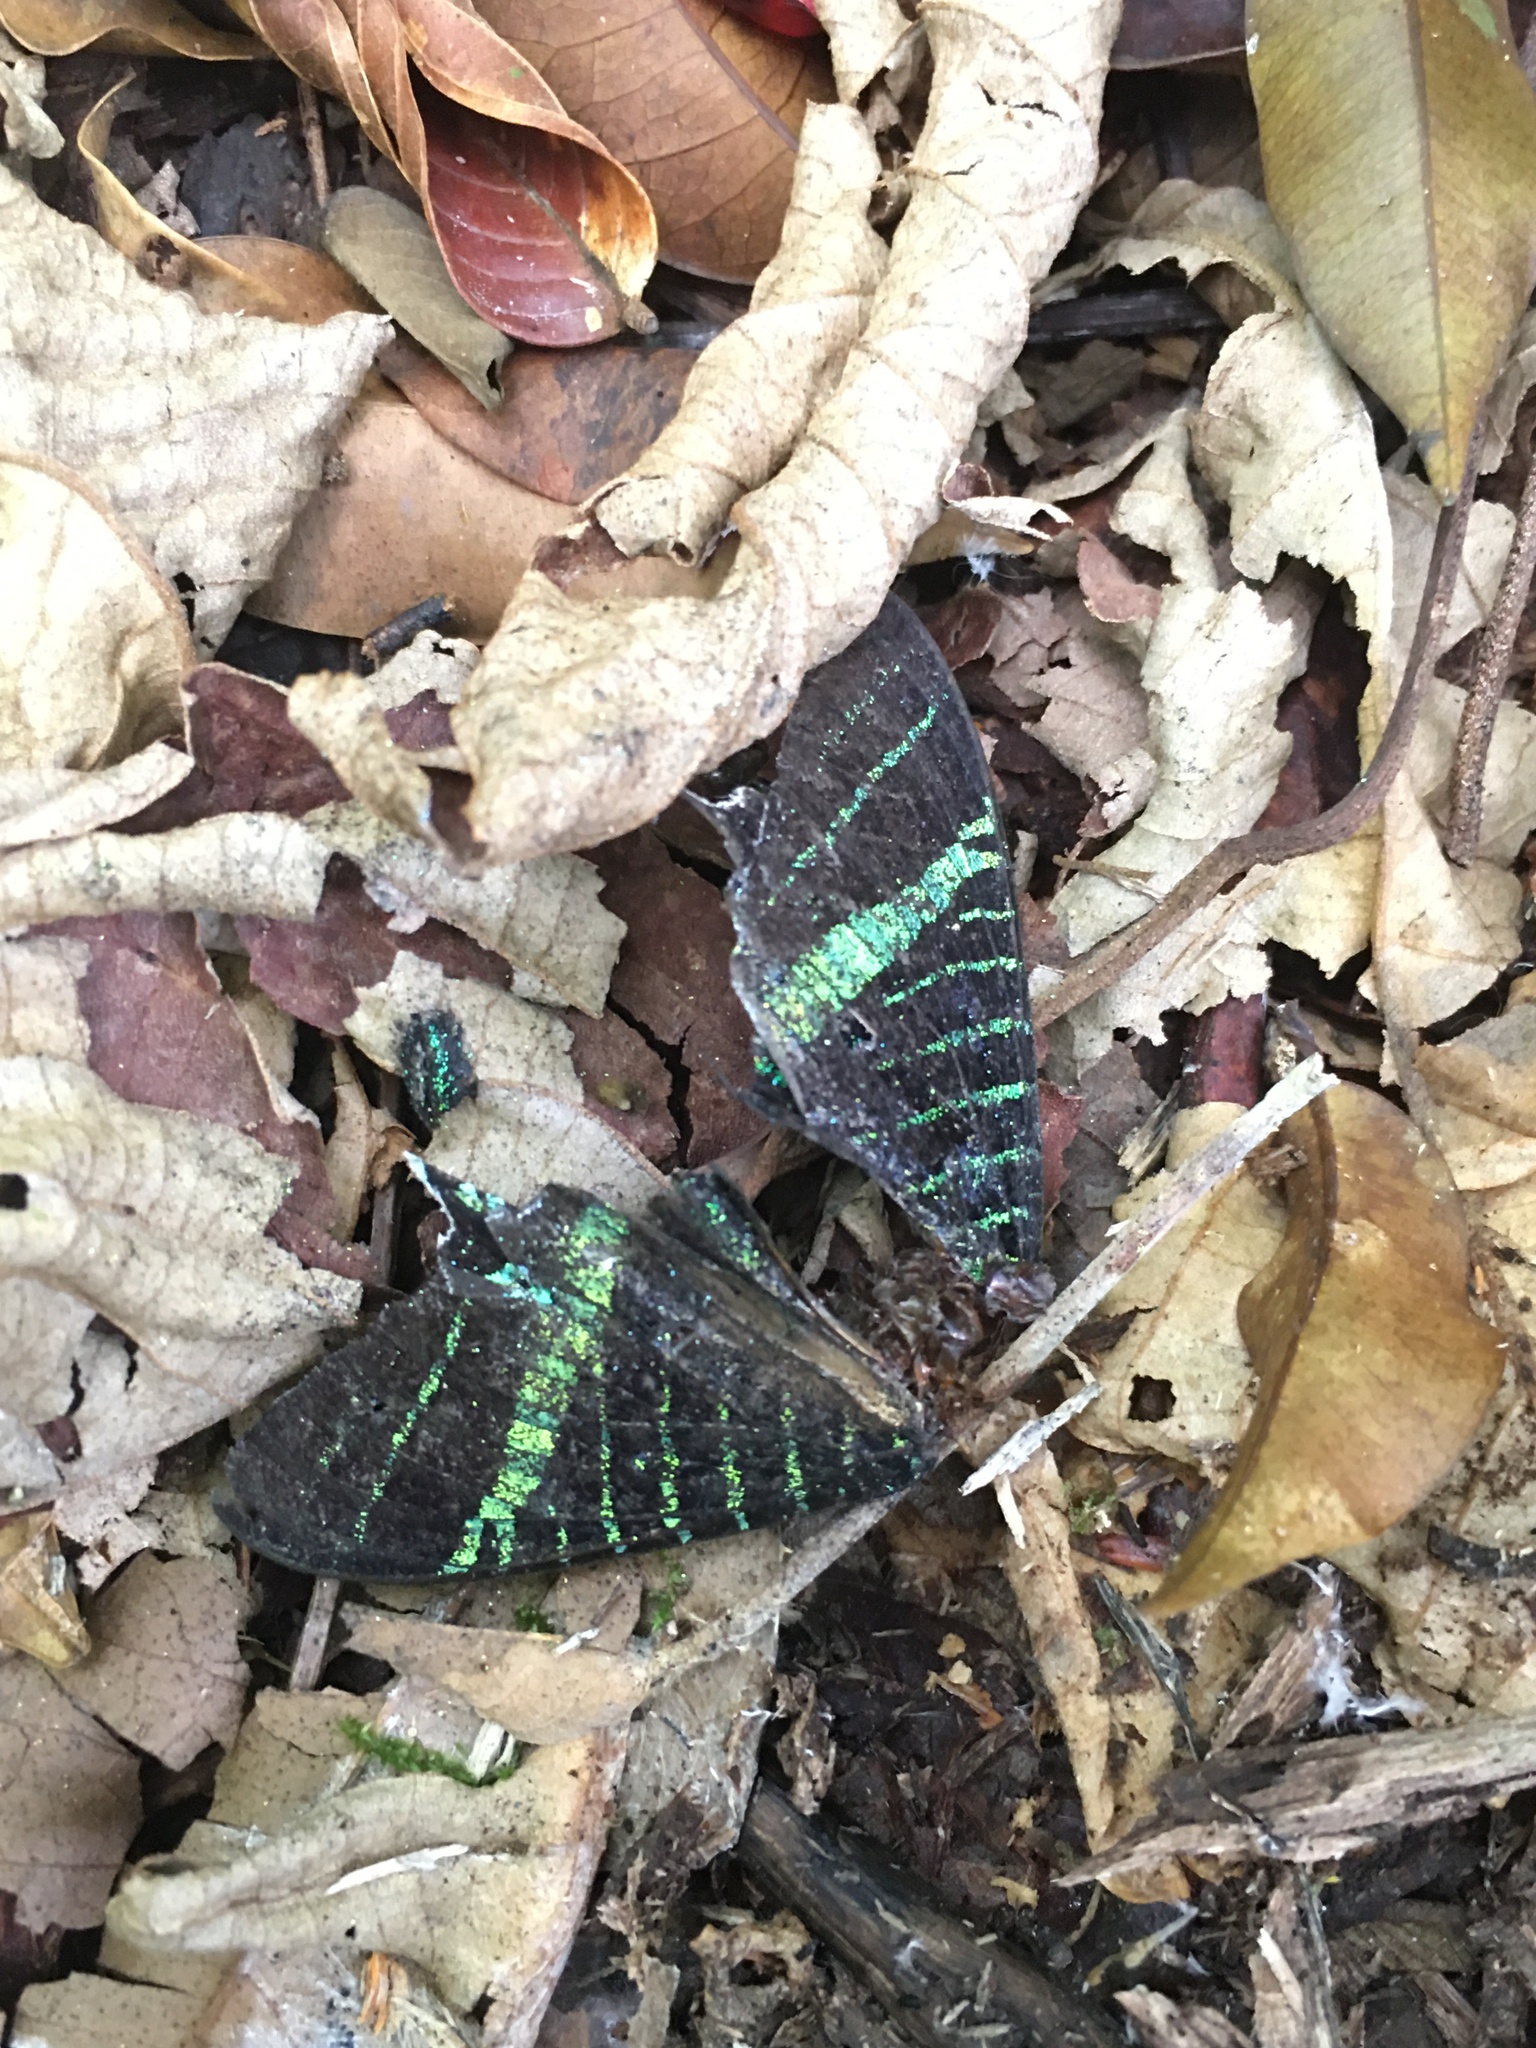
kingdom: Animalia
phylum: Arthropoda
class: Insecta
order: Lepidoptera
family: Uraniidae
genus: Urania
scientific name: Urania leilus
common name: Peacock moth
